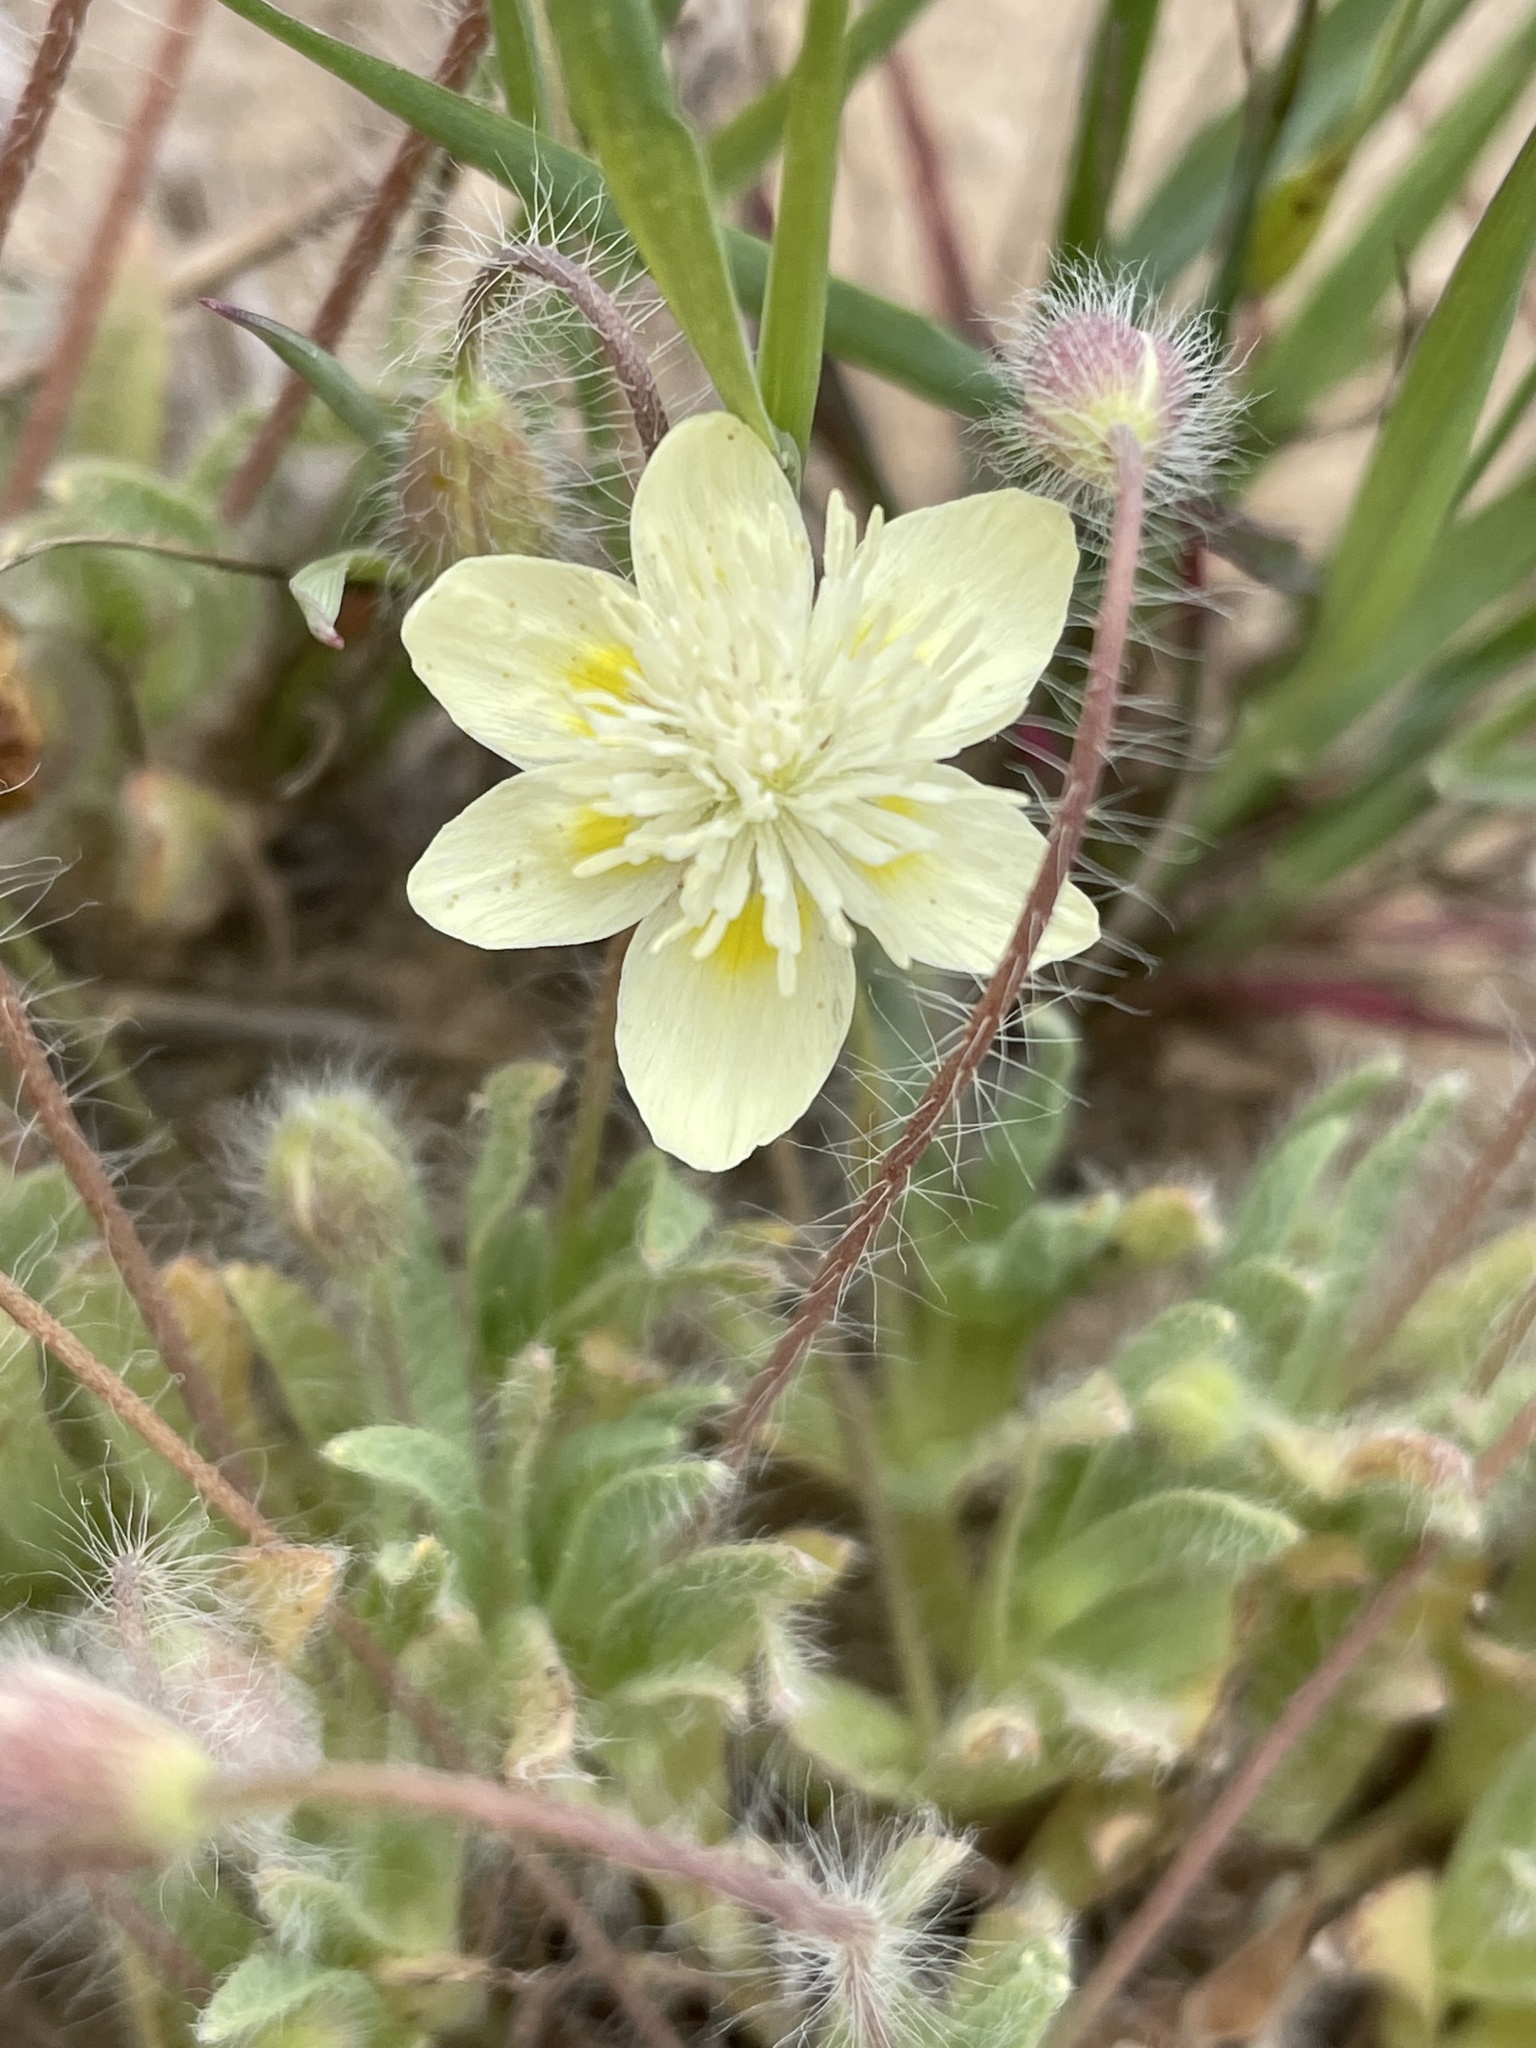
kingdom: Plantae
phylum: Tracheophyta
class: Magnoliopsida
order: Ranunculales
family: Papaveraceae
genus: Platystemon
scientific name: Platystemon californicus
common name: Cream-cups
